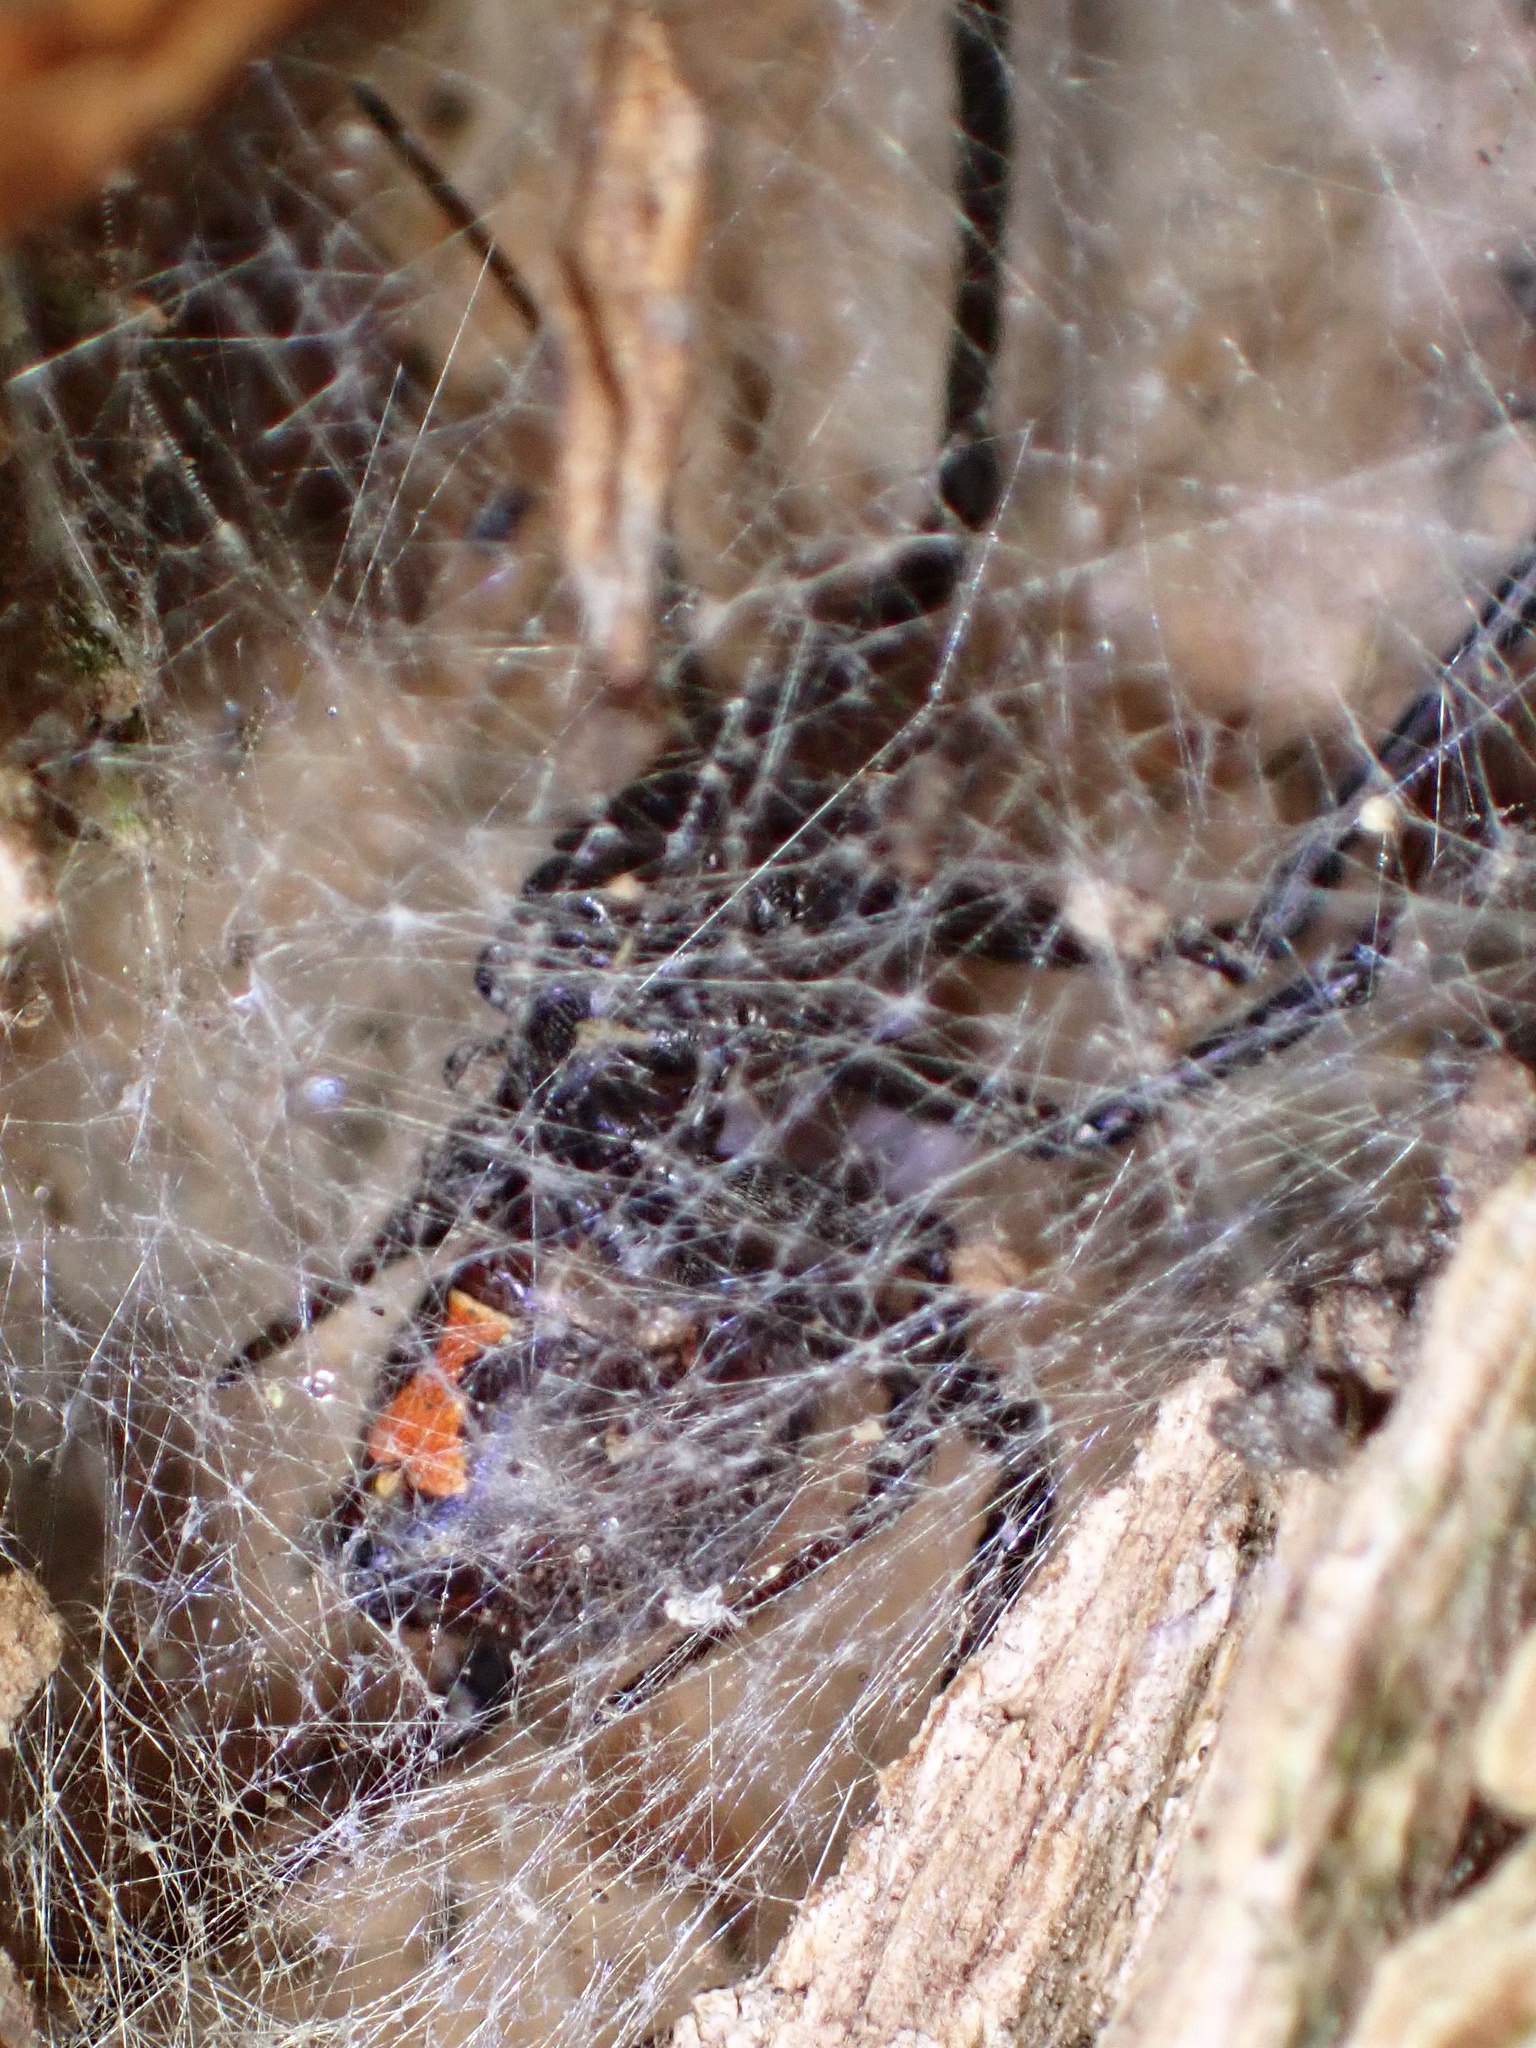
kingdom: Animalia
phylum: Arthropoda
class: Arachnida
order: Araneae
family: Theridiidae
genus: Latrodectus
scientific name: Latrodectus geometricus
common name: Brown widow spider
